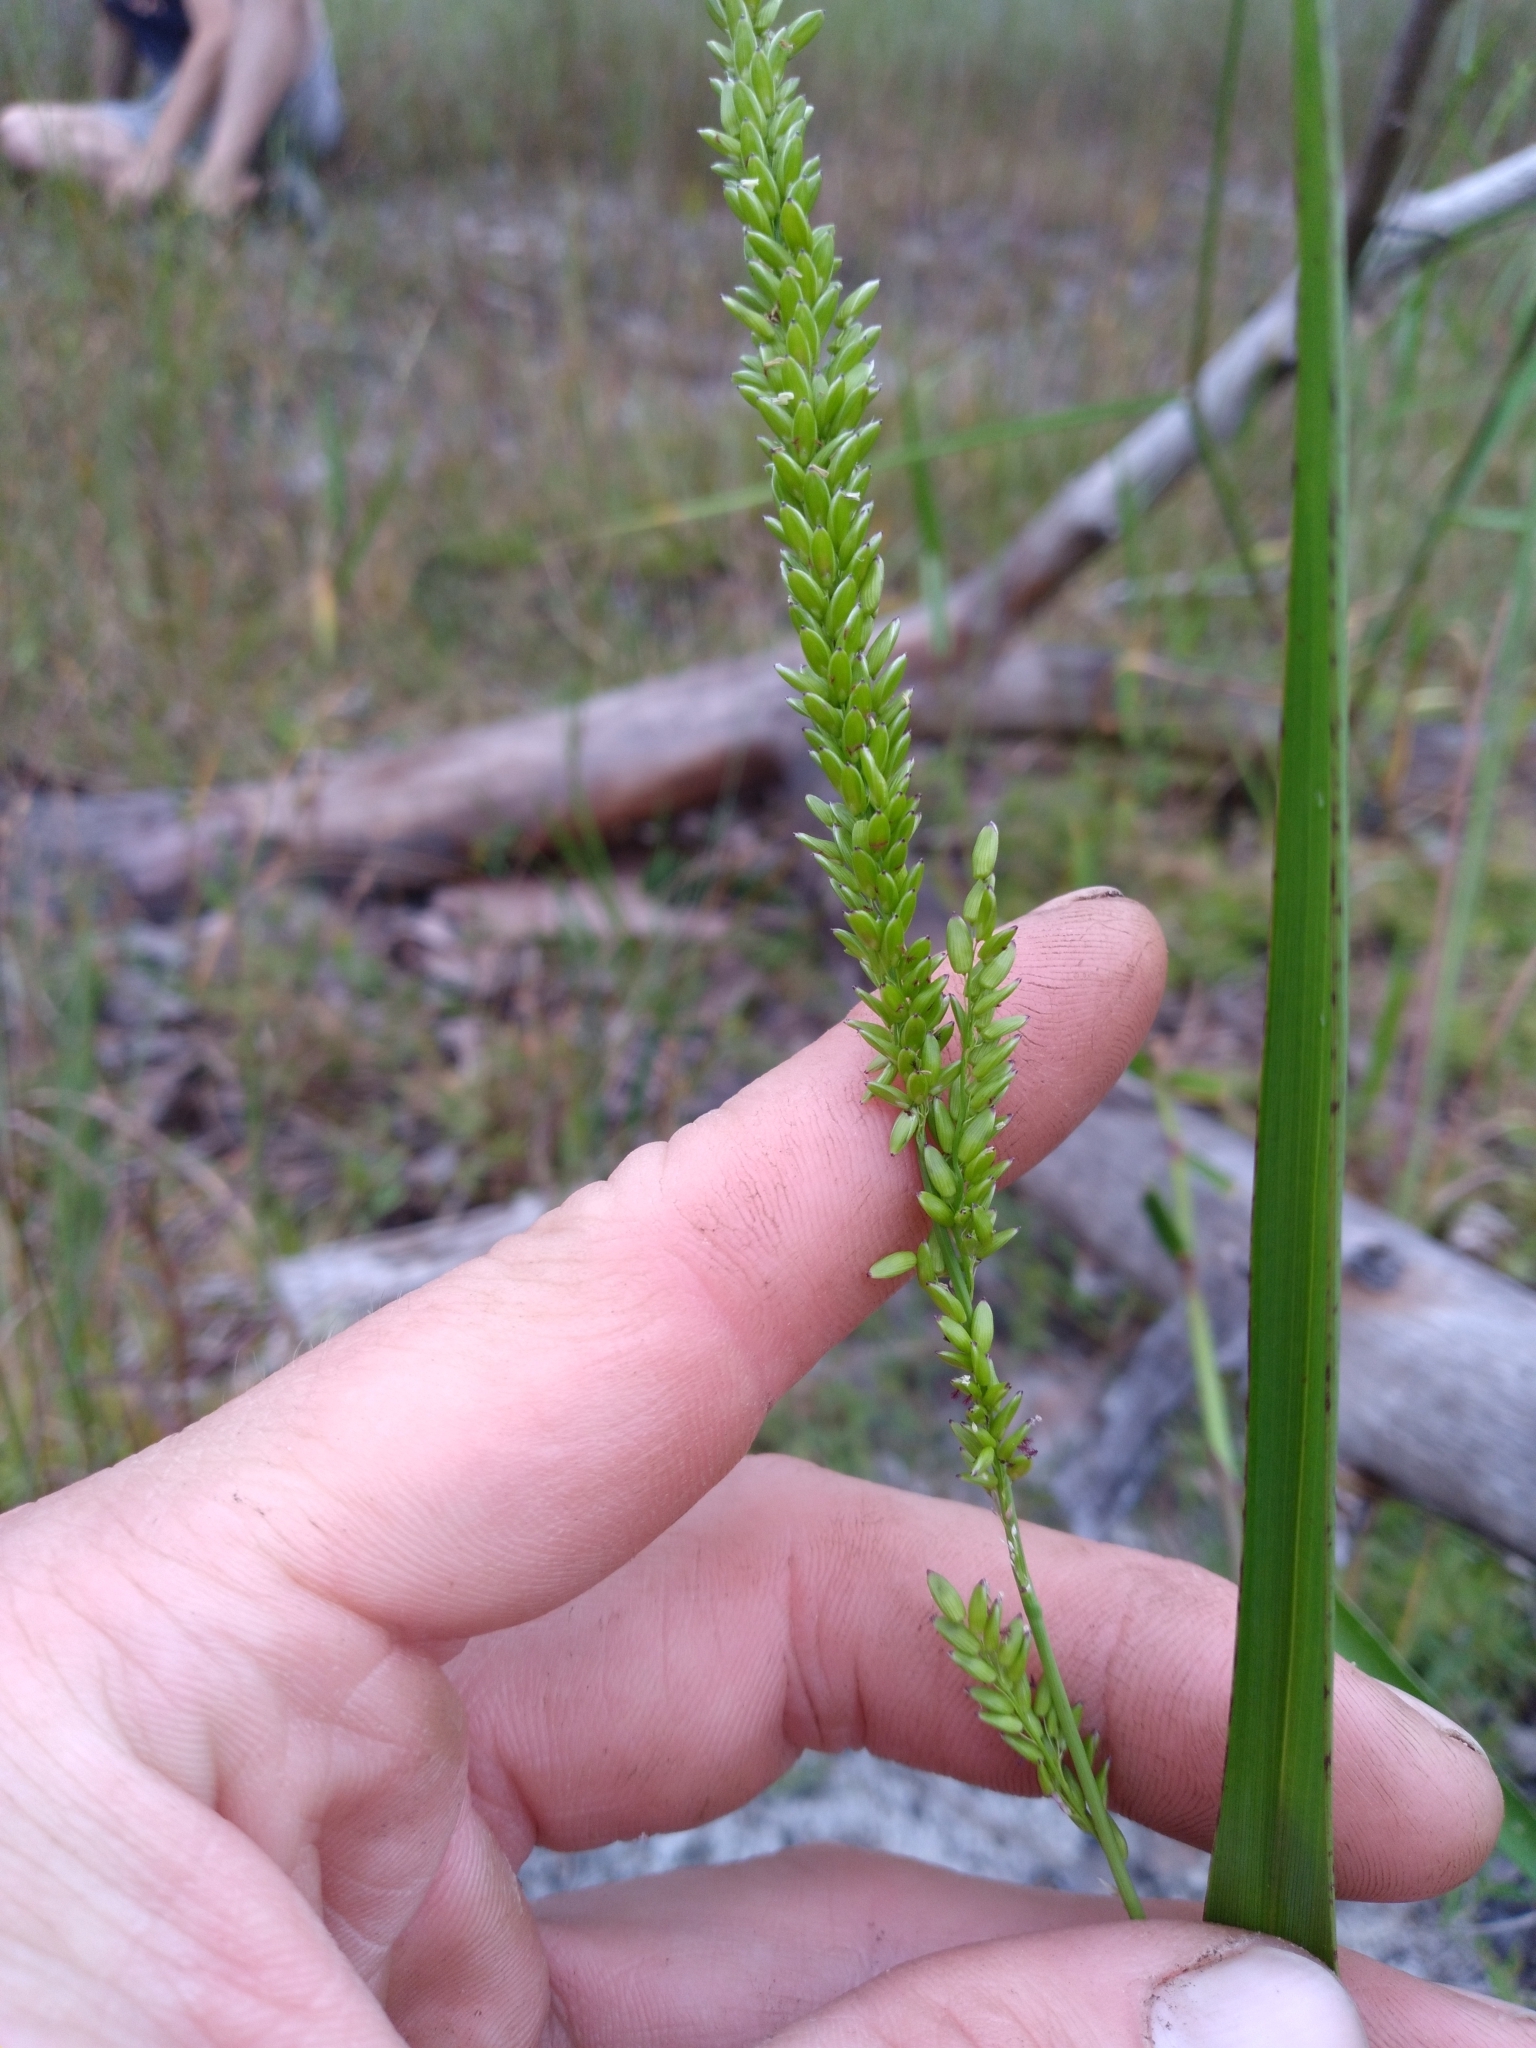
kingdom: Plantae
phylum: Tracheophyta
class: Liliopsida
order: Poales
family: Poaceae
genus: Sacciolepis
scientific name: Sacciolepis striata
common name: American cupscale
